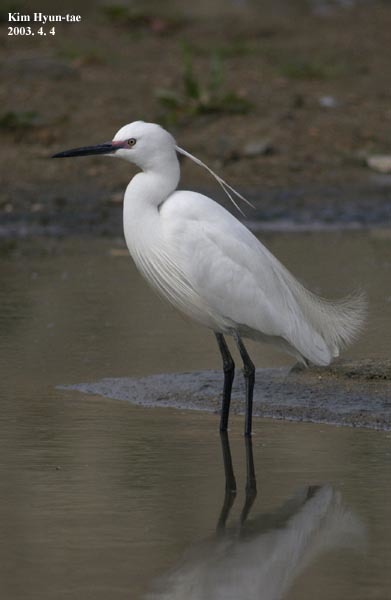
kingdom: Animalia
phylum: Chordata
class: Aves
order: Pelecaniformes
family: Ardeidae
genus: Egretta
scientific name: Egretta garzetta
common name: Little egret
